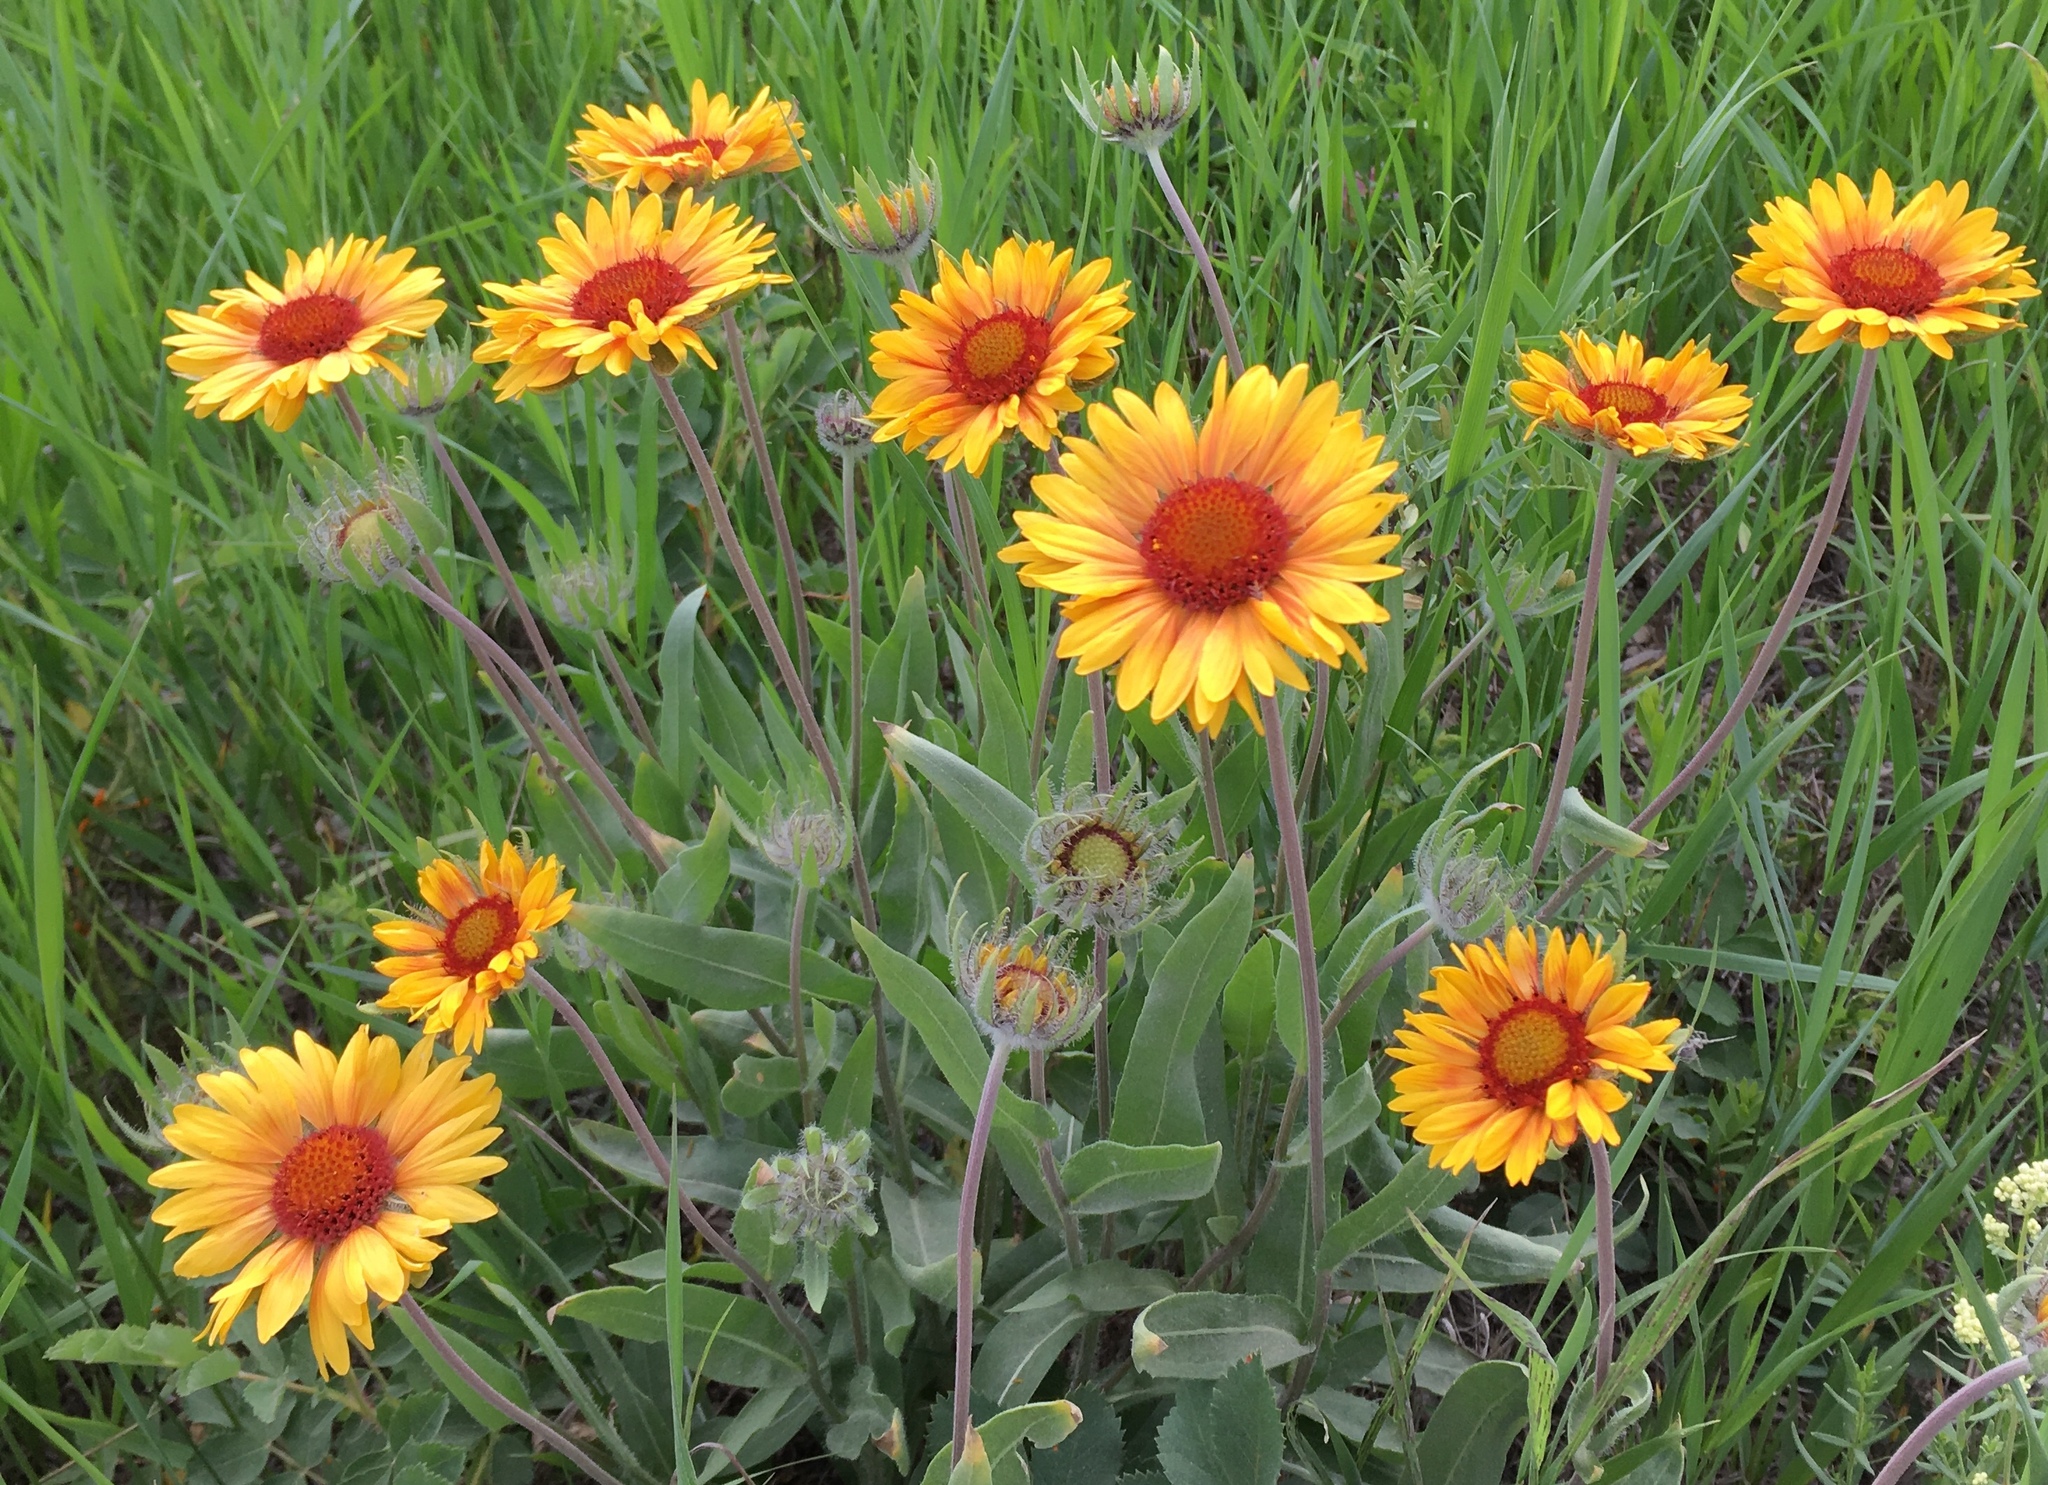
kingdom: Plantae
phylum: Tracheophyta
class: Magnoliopsida
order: Asterales
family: Asteraceae
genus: Gaillardia
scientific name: Gaillardia aristata
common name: Blanket-flower
